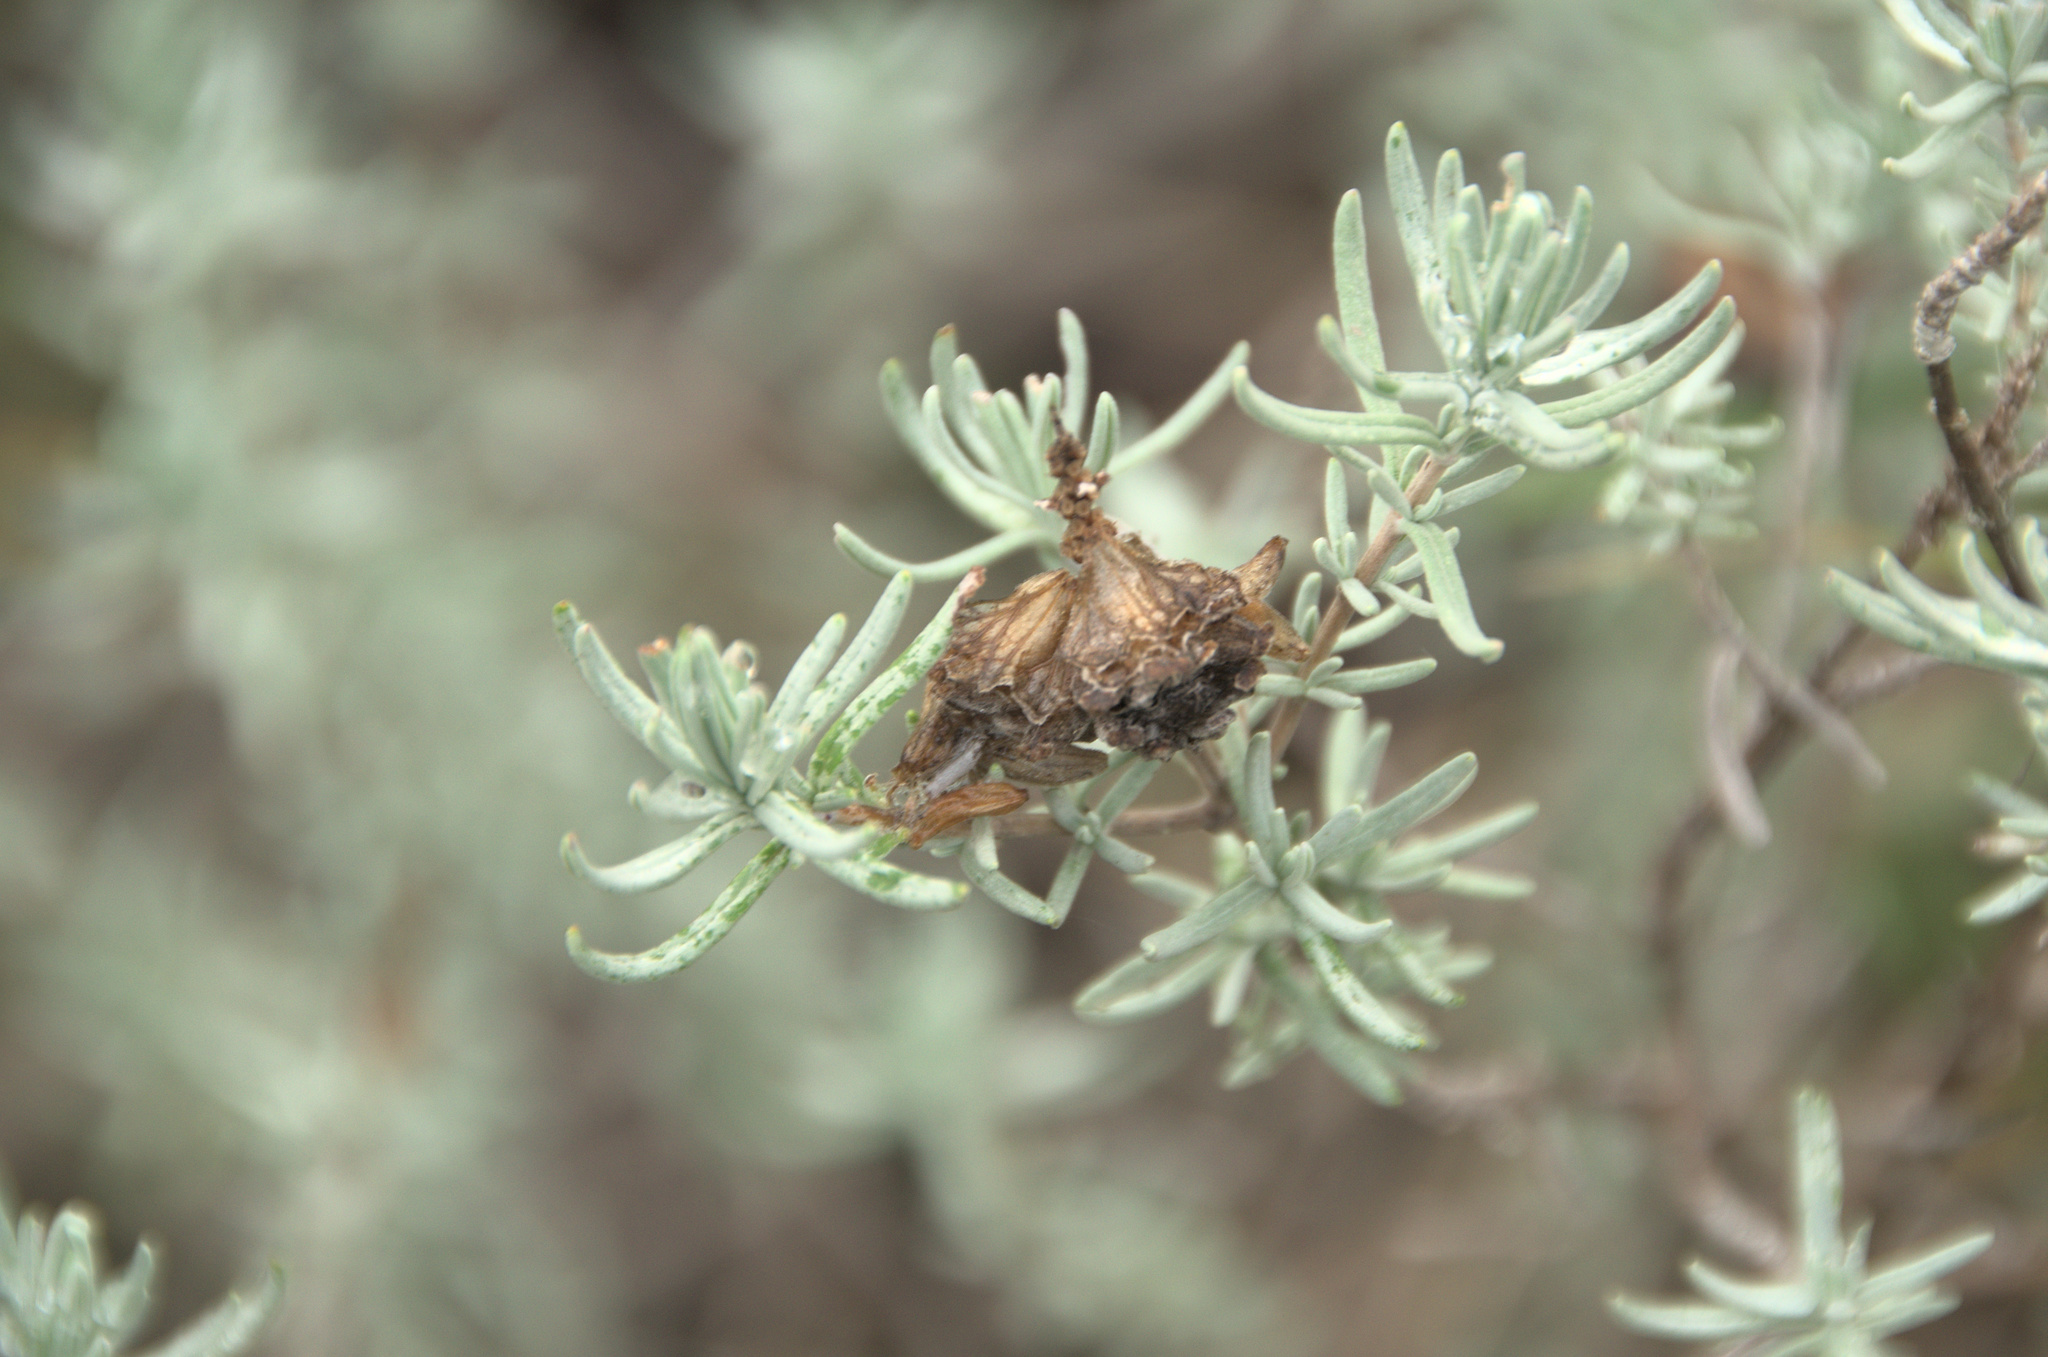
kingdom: Plantae
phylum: Tracheophyta
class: Magnoliopsida
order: Lamiales
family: Lamiaceae
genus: Lavandula
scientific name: Lavandula stoechas
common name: French lavender
